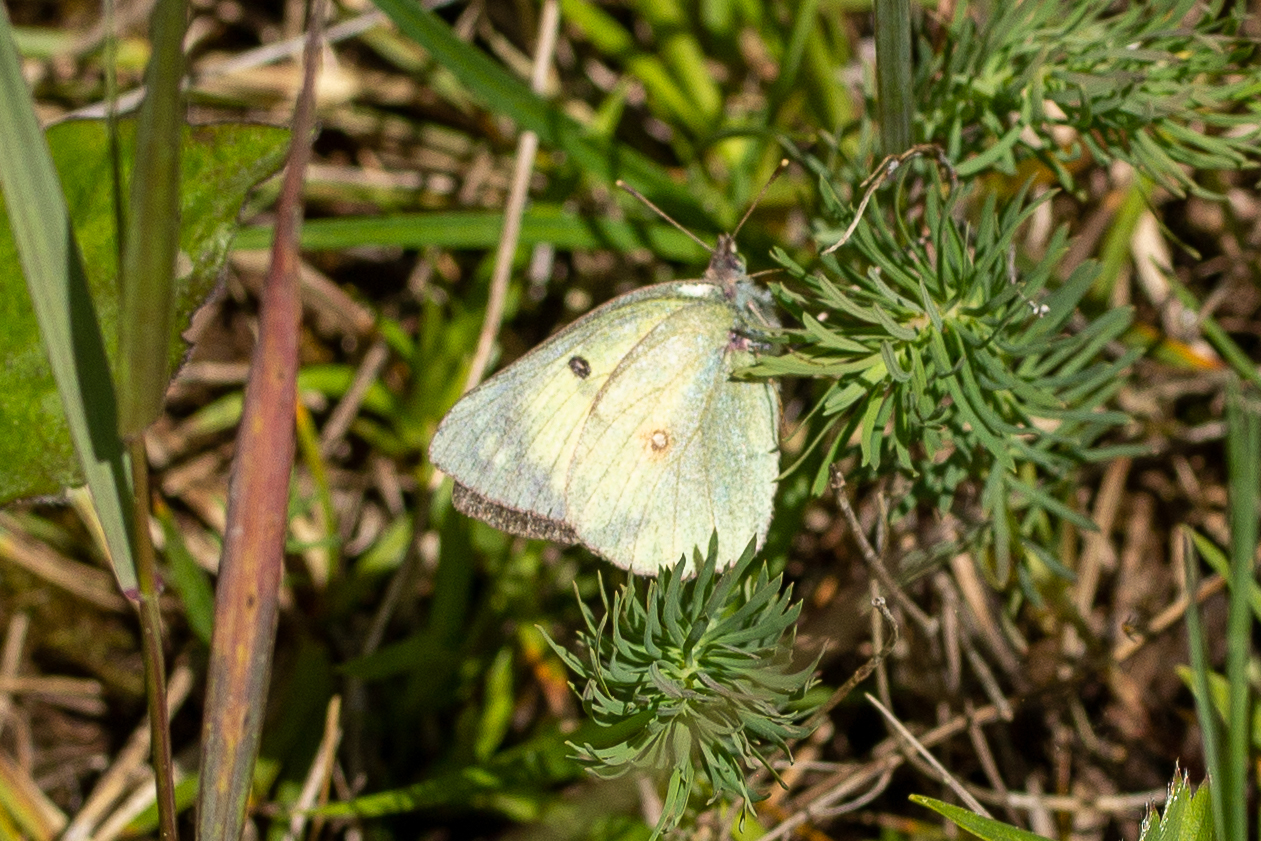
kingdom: Animalia
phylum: Arthropoda
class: Insecta
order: Lepidoptera
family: Pieridae
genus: Colias
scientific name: Colias philodice
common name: Clouded sulphur
